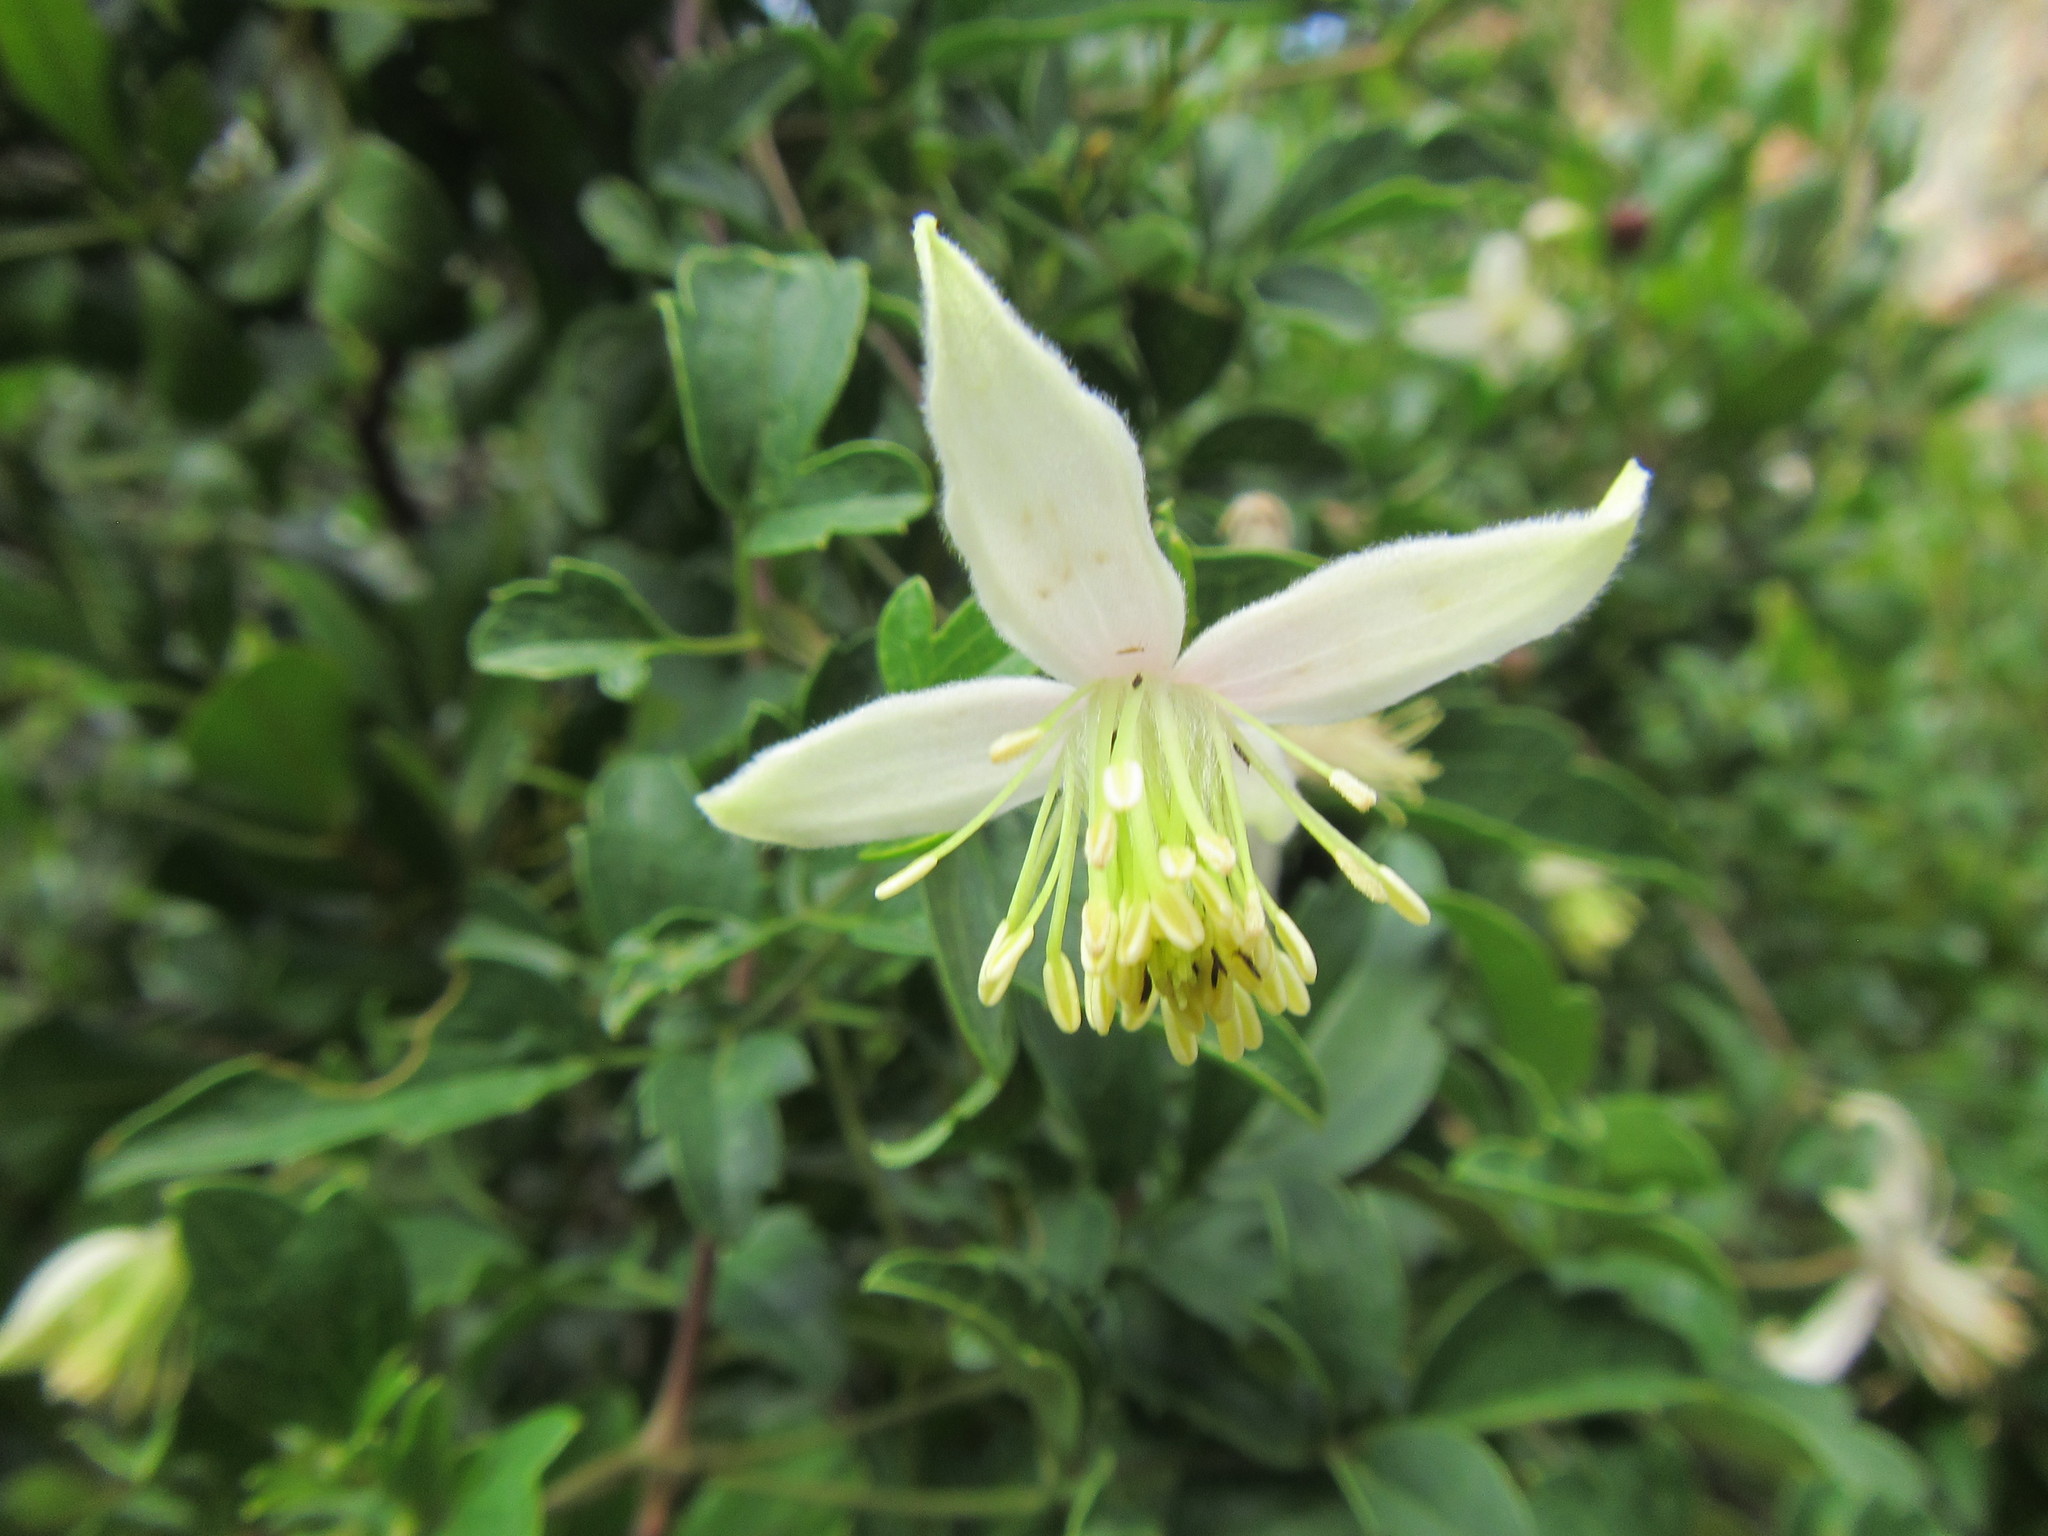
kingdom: Plantae
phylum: Tracheophyta
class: Magnoliopsida
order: Ranunculales
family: Ranunculaceae
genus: Clematis
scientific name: Clematis brachiata
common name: Traveler's-joy
